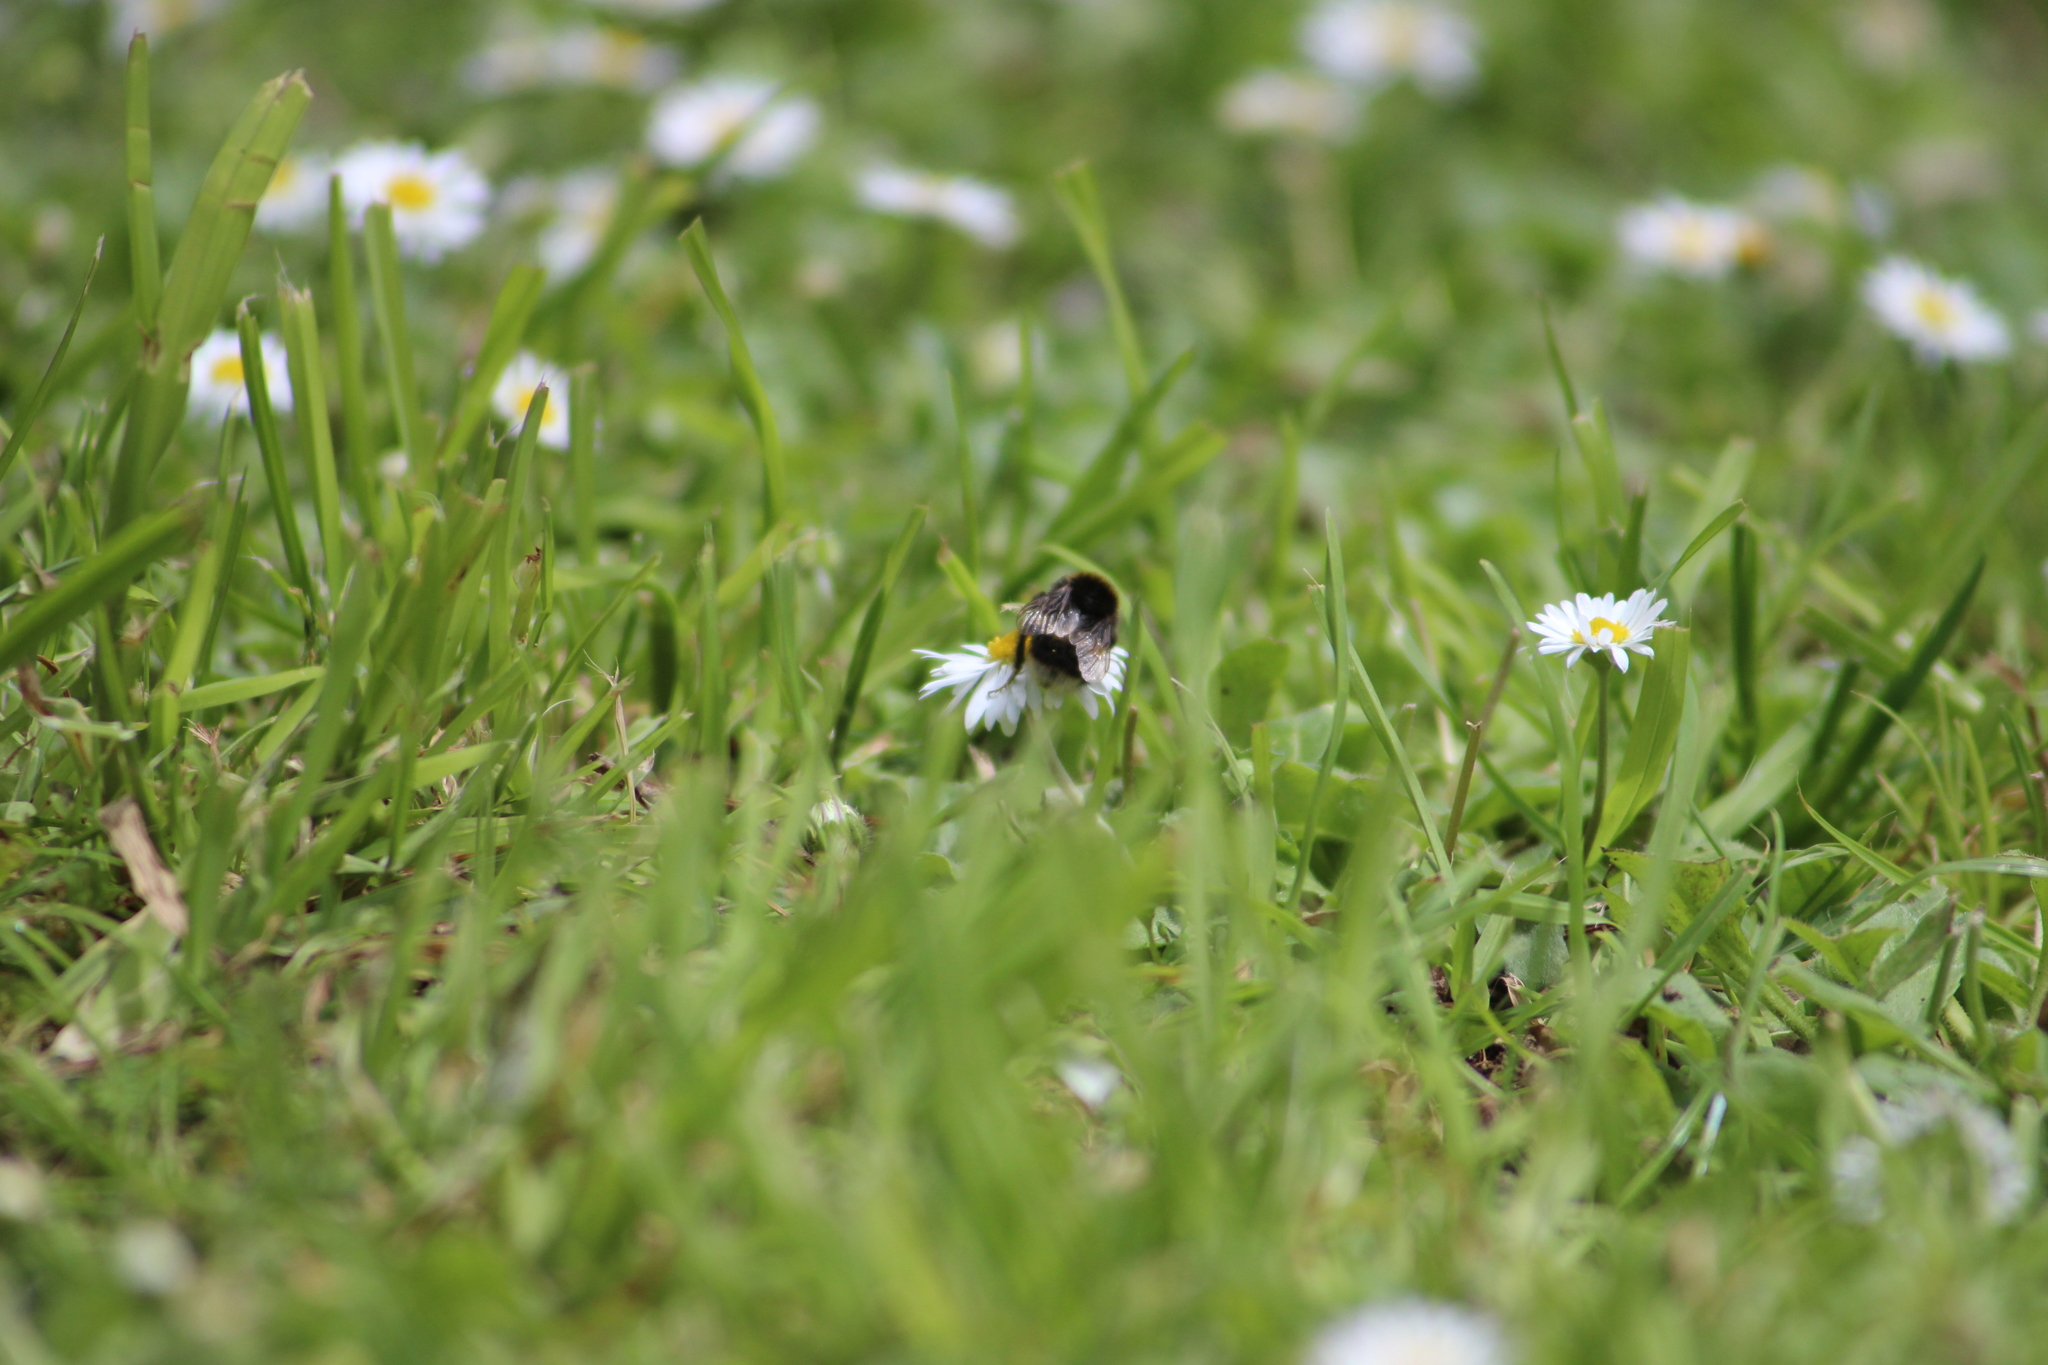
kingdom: Animalia
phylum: Arthropoda
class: Insecta
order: Hymenoptera
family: Apidae
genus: Bombus
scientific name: Bombus terrestris
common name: Buff-tailed bumblebee
